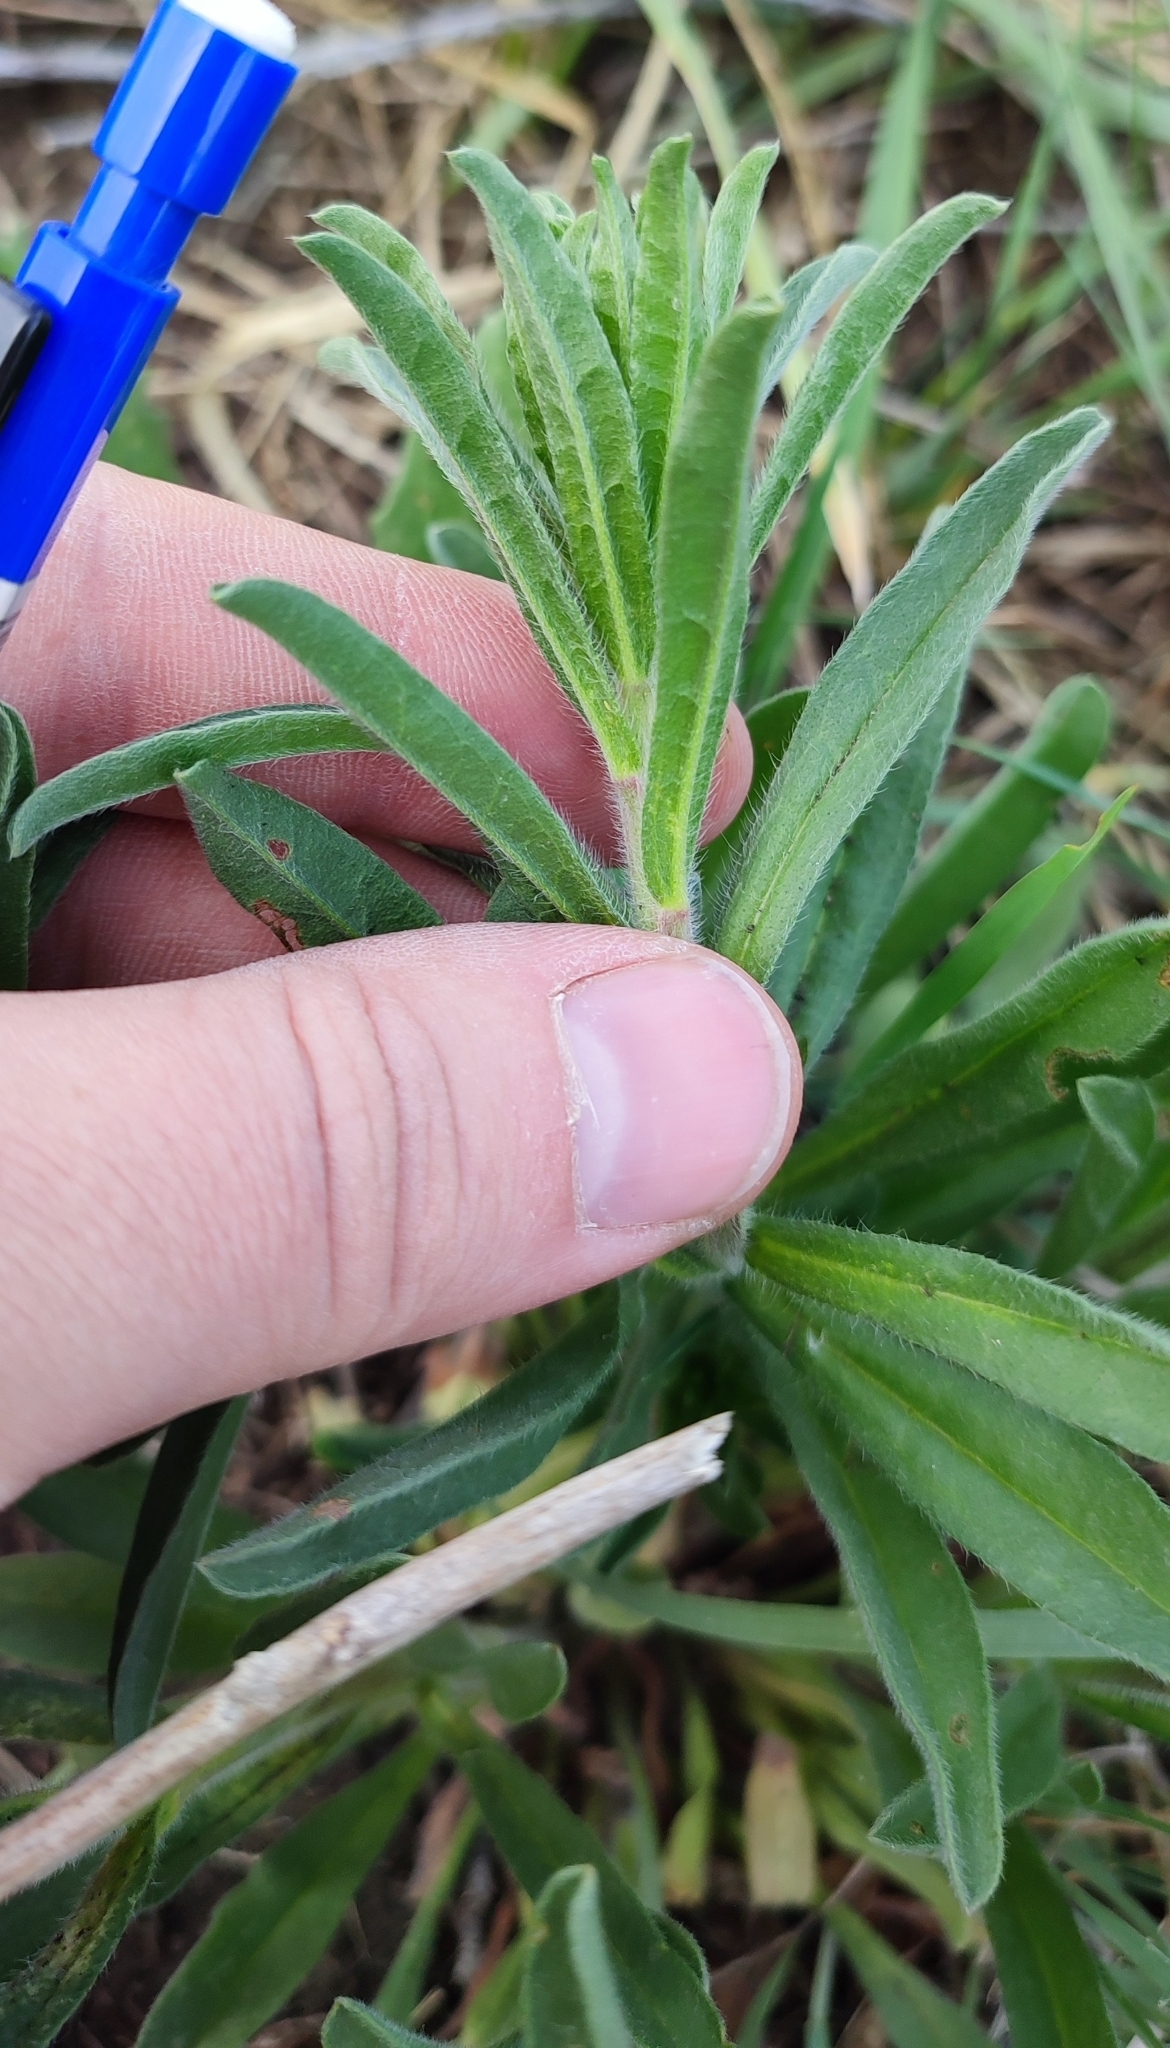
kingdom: Plantae
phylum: Tracheophyta
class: Magnoliopsida
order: Boraginales
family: Boraginaceae
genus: Lappula
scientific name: Lappula squarrosa
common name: European stickseed
